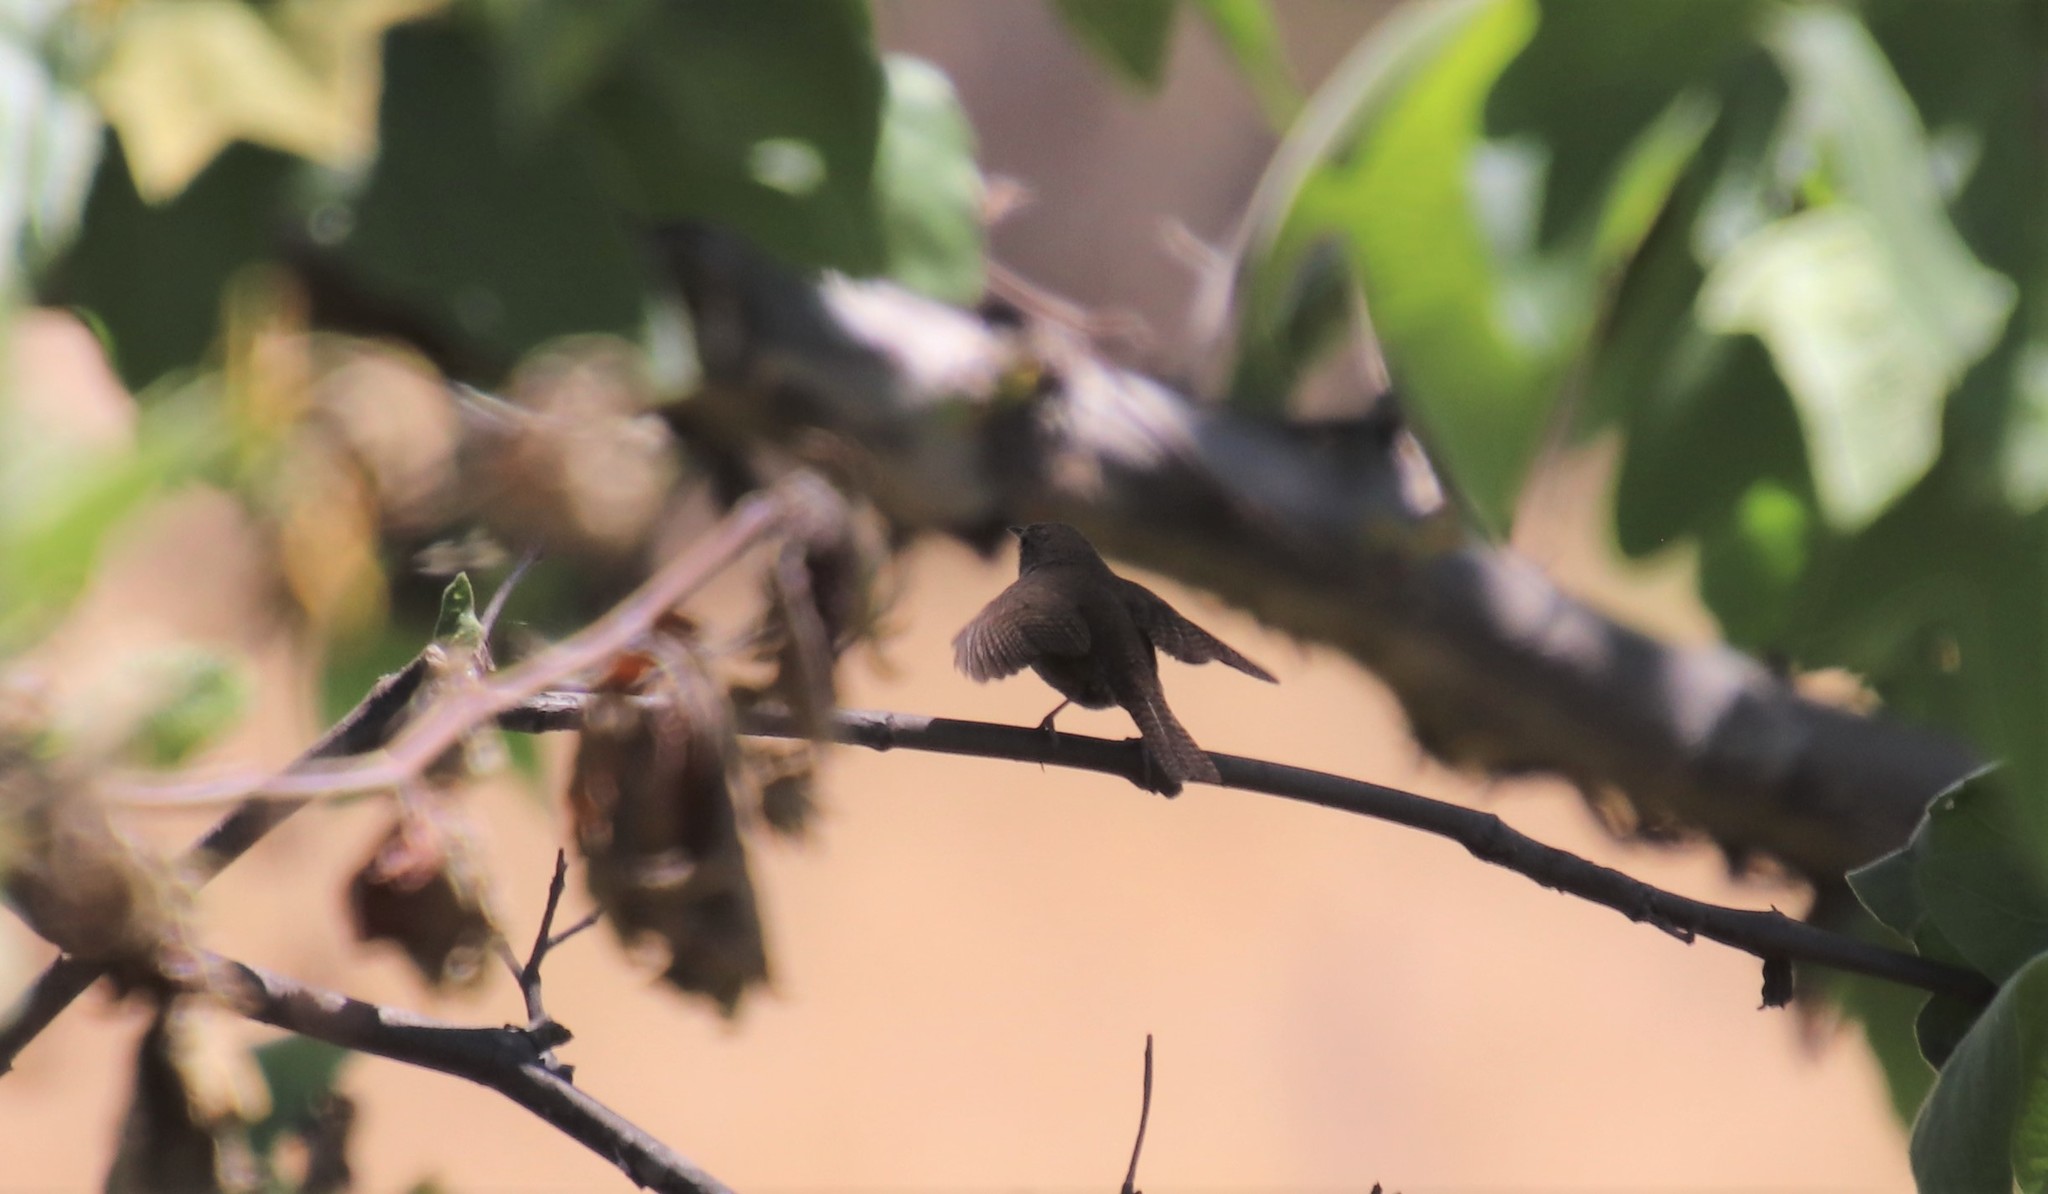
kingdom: Animalia
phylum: Chordata
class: Aves
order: Passeriformes
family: Troglodytidae
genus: Troglodytes
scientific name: Troglodytes aedon
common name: House wren
